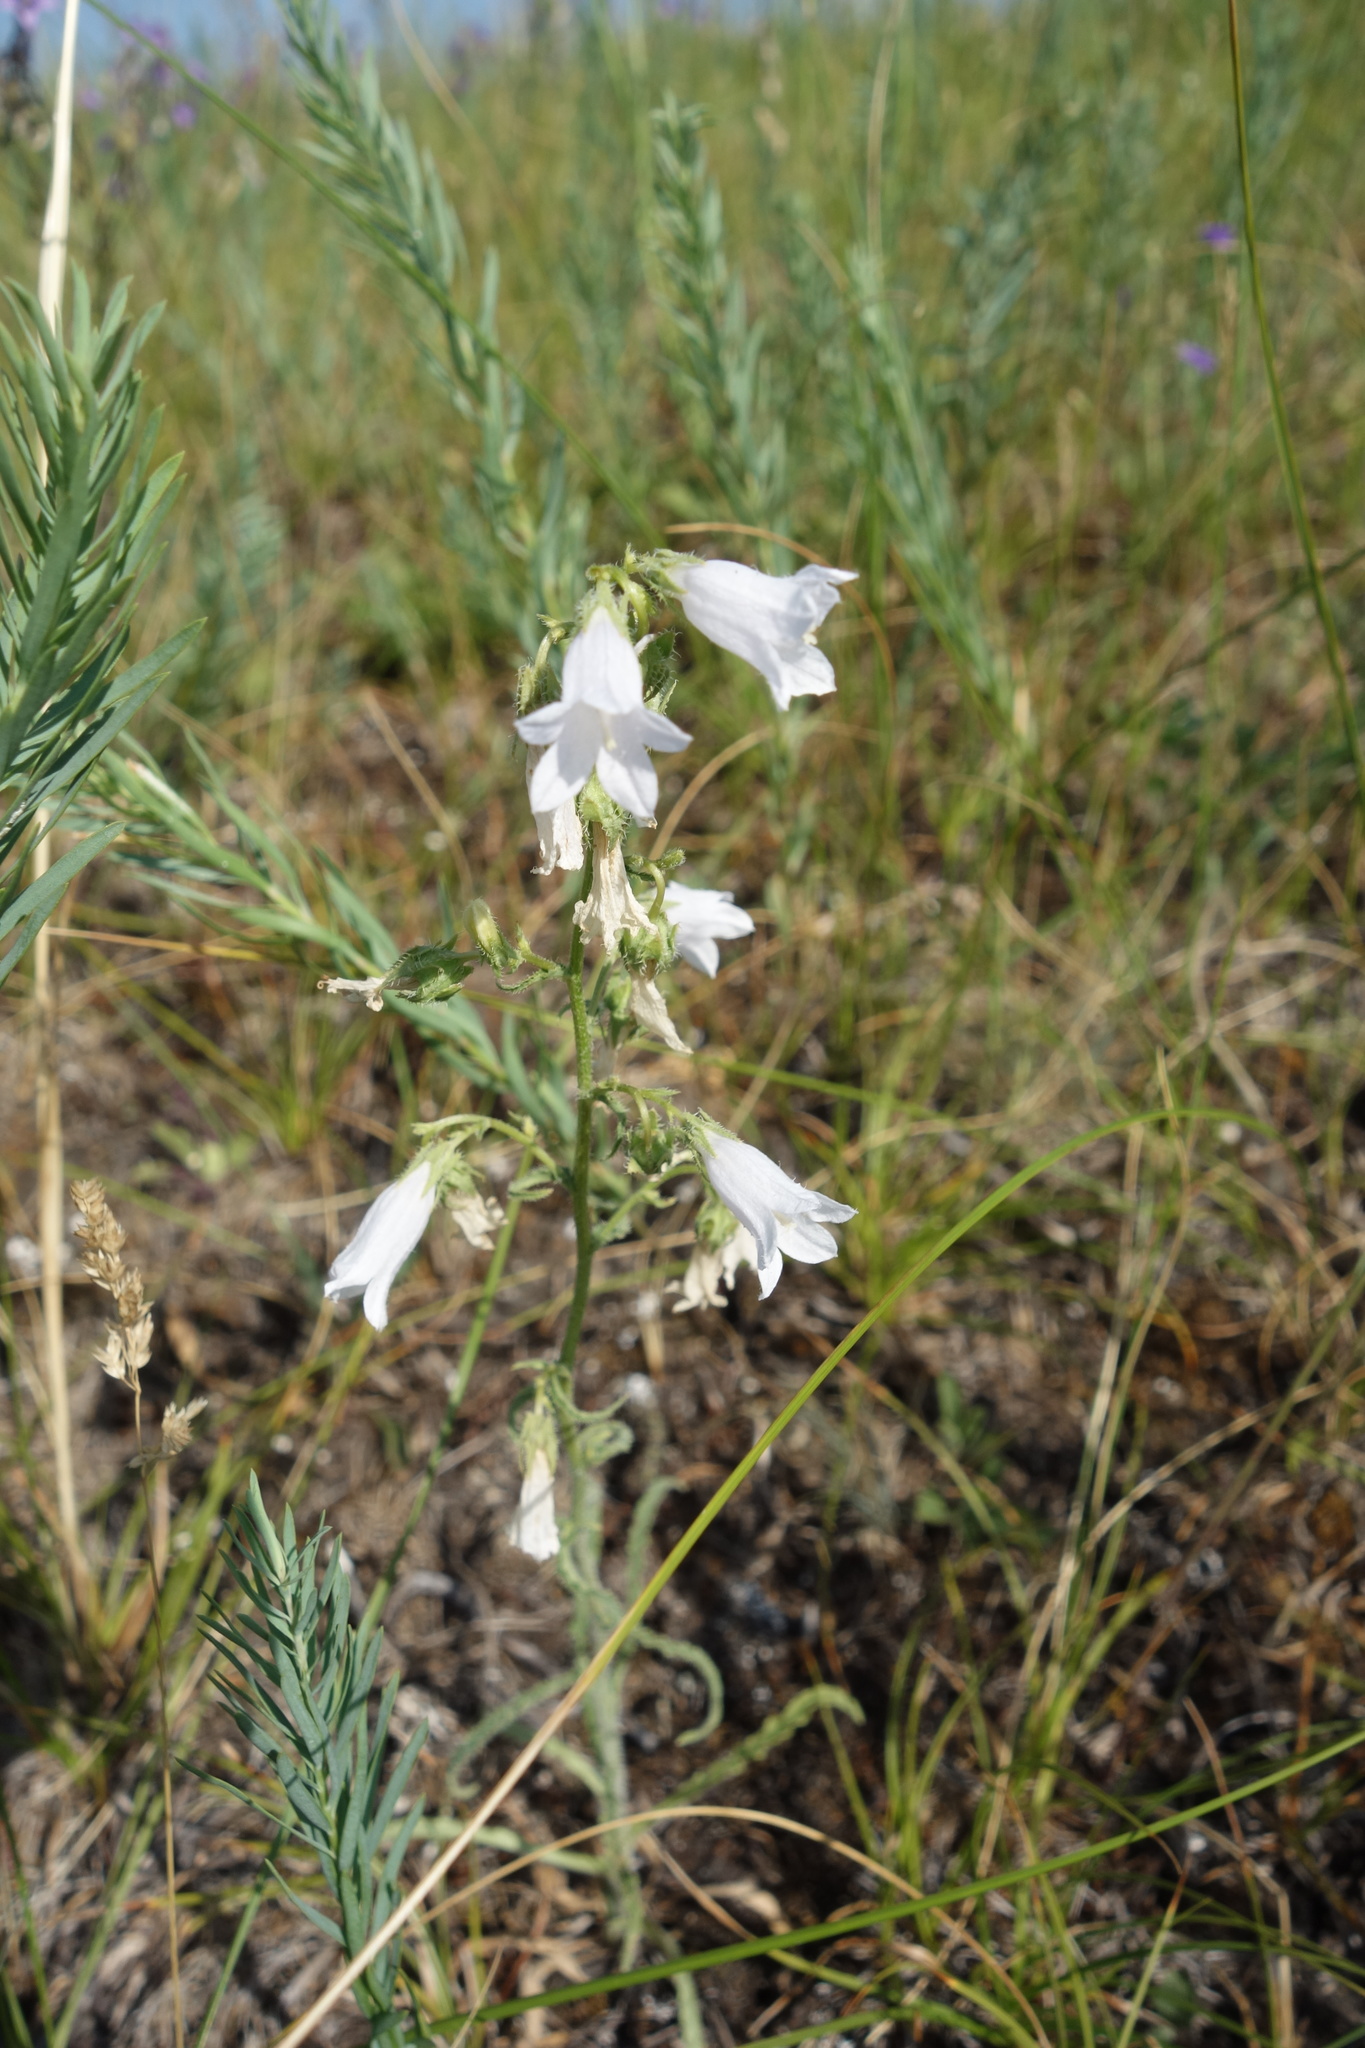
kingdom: Plantae
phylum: Tracheophyta
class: Magnoliopsida
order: Asterales
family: Campanulaceae
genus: Campanula
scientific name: Campanula sibirica
